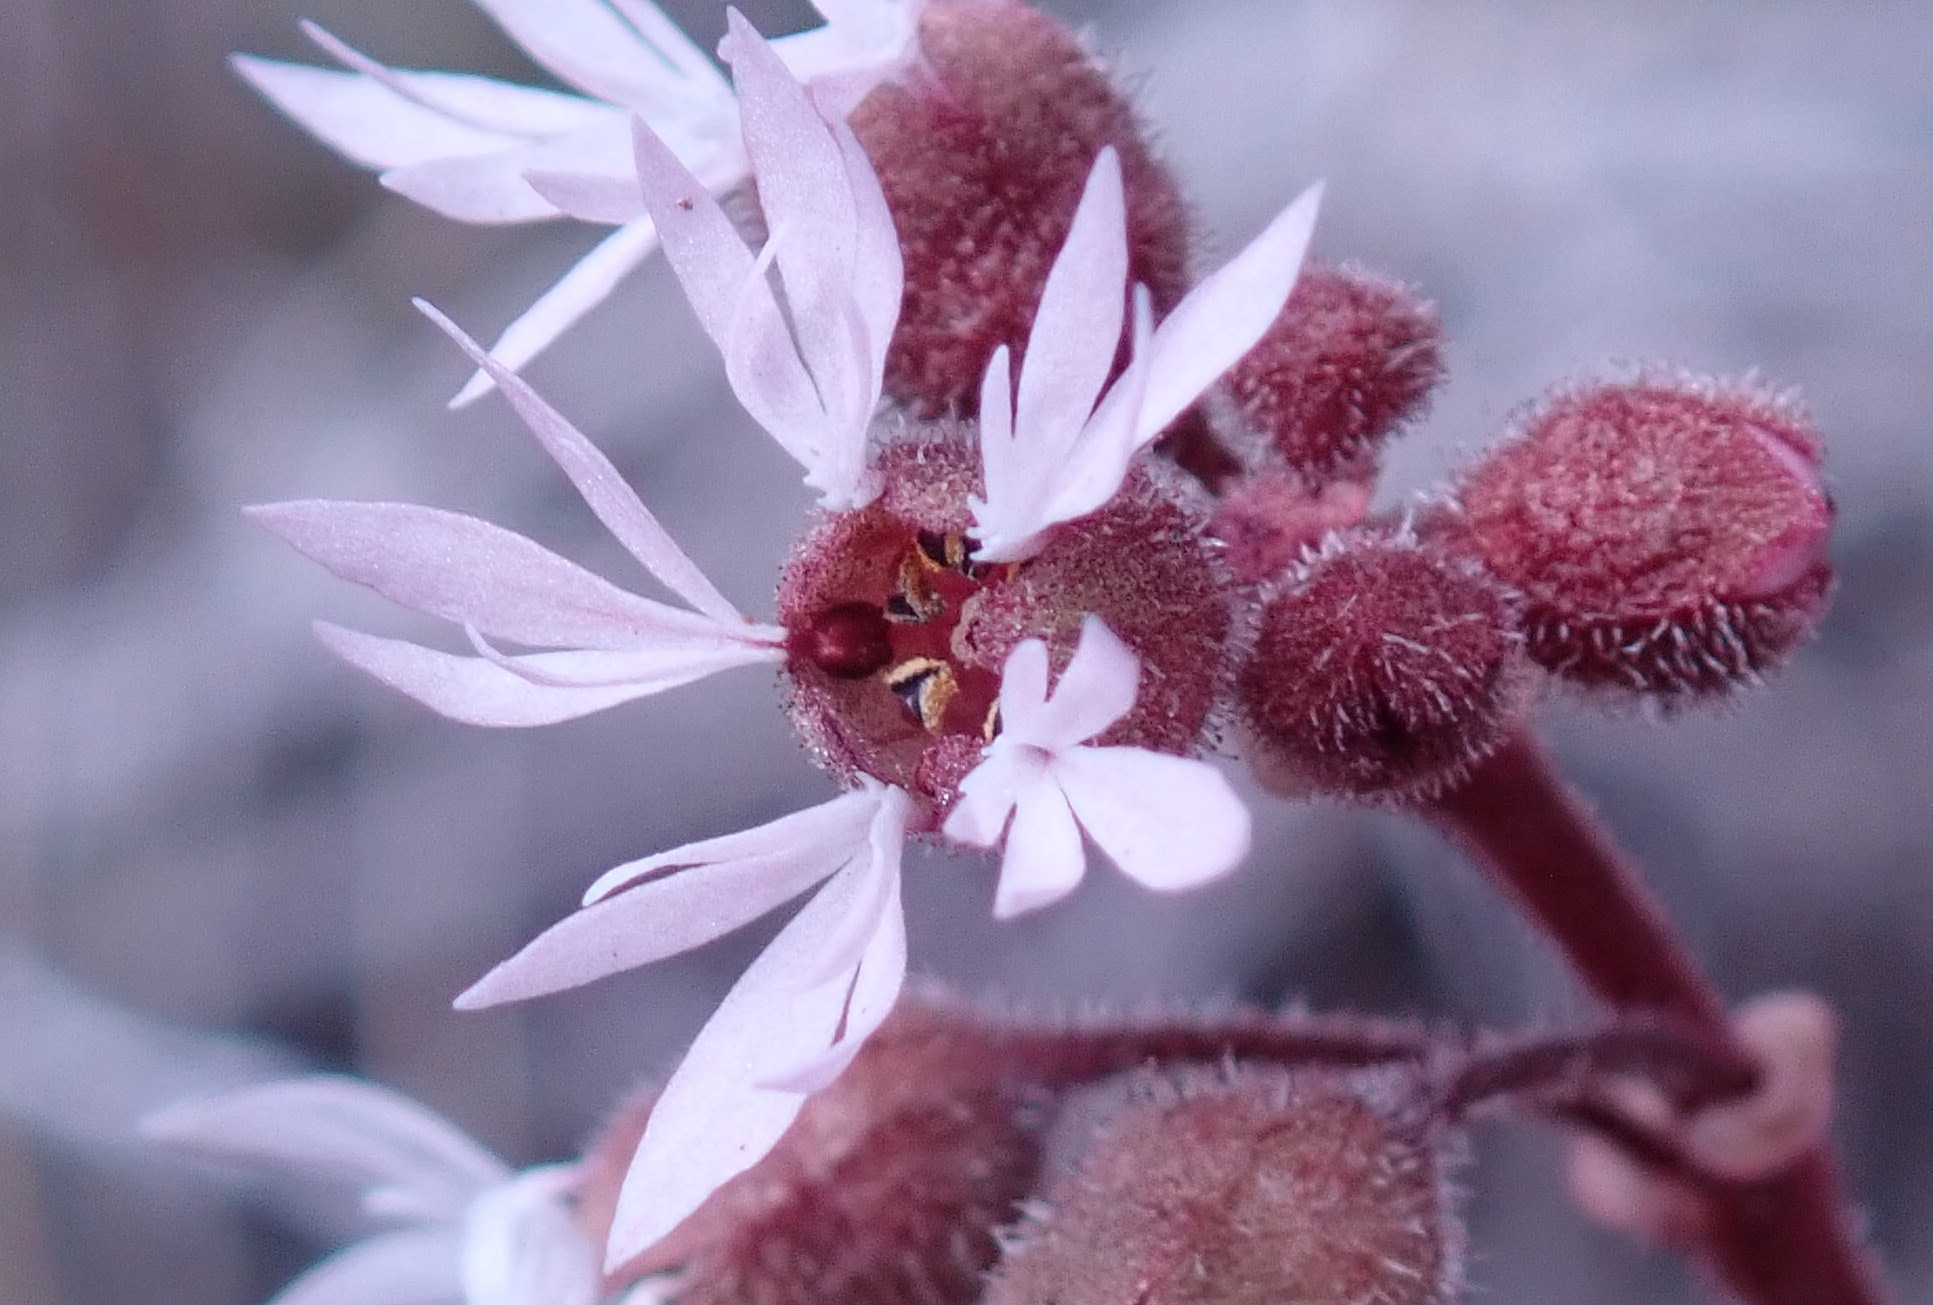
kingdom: Plantae
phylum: Tracheophyta
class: Magnoliopsida
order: Saxifragales
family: Saxifragaceae
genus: Lithophragma
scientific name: Lithophragma glabrum
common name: Bulbous prairie-star
